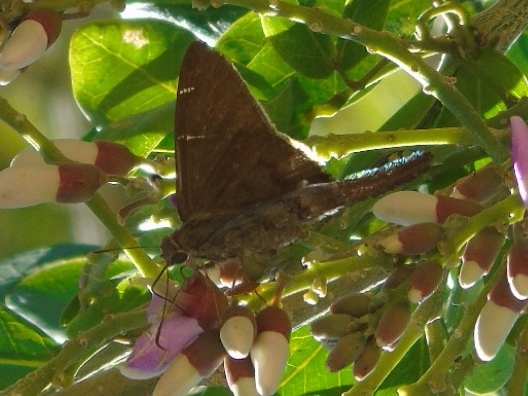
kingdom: Animalia
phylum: Arthropoda
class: Insecta
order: Lepidoptera
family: Hesperiidae
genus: Urbanus
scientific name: Urbanus procne
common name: Brown longtail
